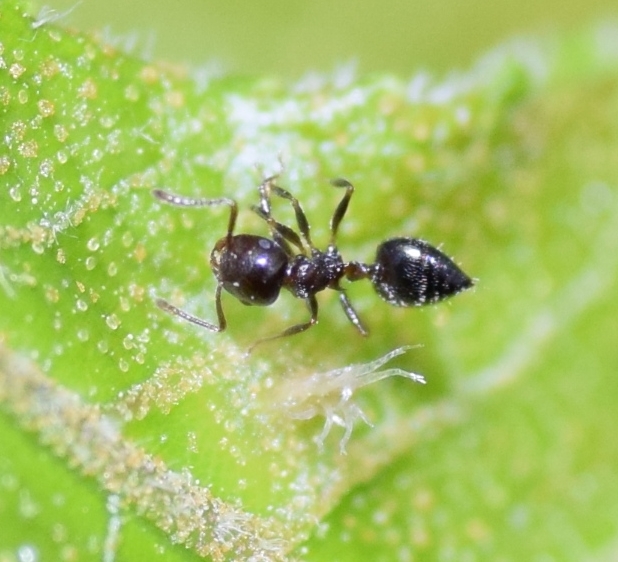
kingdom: Animalia
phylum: Arthropoda
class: Insecta
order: Hymenoptera
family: Formicidae
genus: Crematogaster
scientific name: Crematogaster ashmeadi
